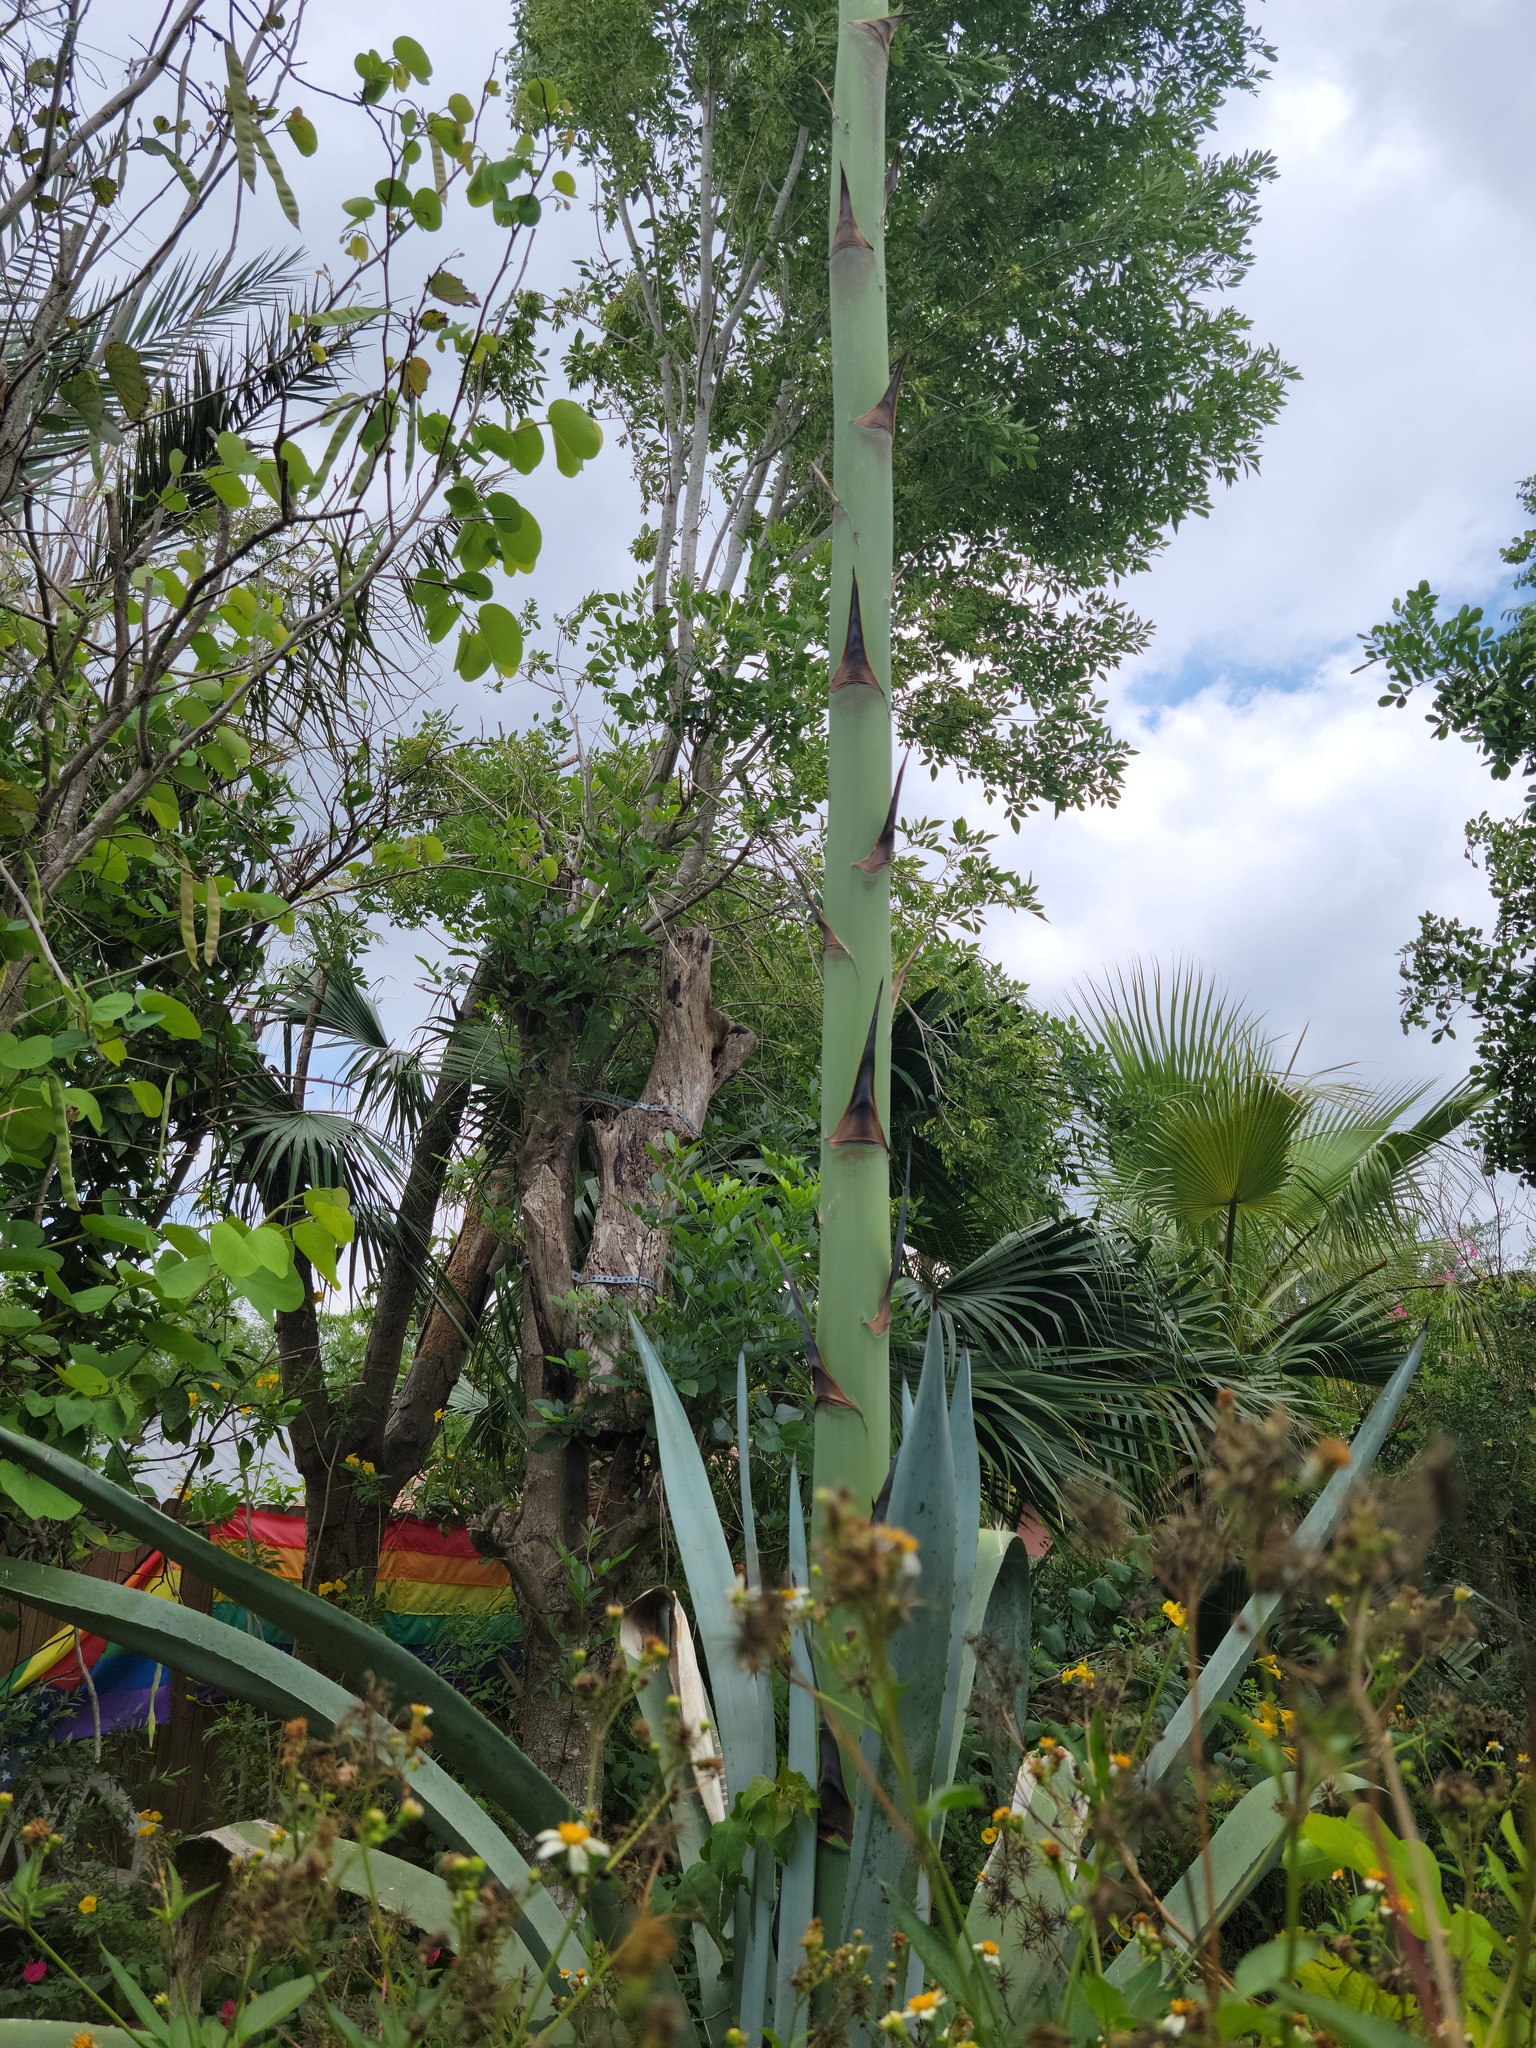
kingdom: Plantae
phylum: Tracheophyta
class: Liliopsida
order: Asparagales
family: Asparagaceae
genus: Agave
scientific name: Agave americana
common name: Centuryplant
